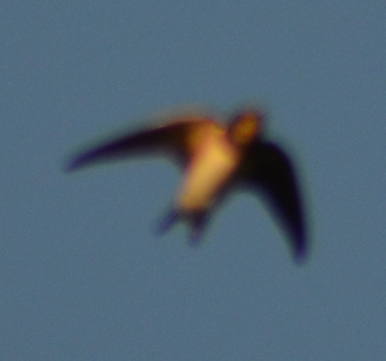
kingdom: Animalia
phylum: Chordata
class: Aves
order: Passeriformes
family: Hirundinidae
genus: Hirundo
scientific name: Hirundo rustica
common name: Barn swallow
